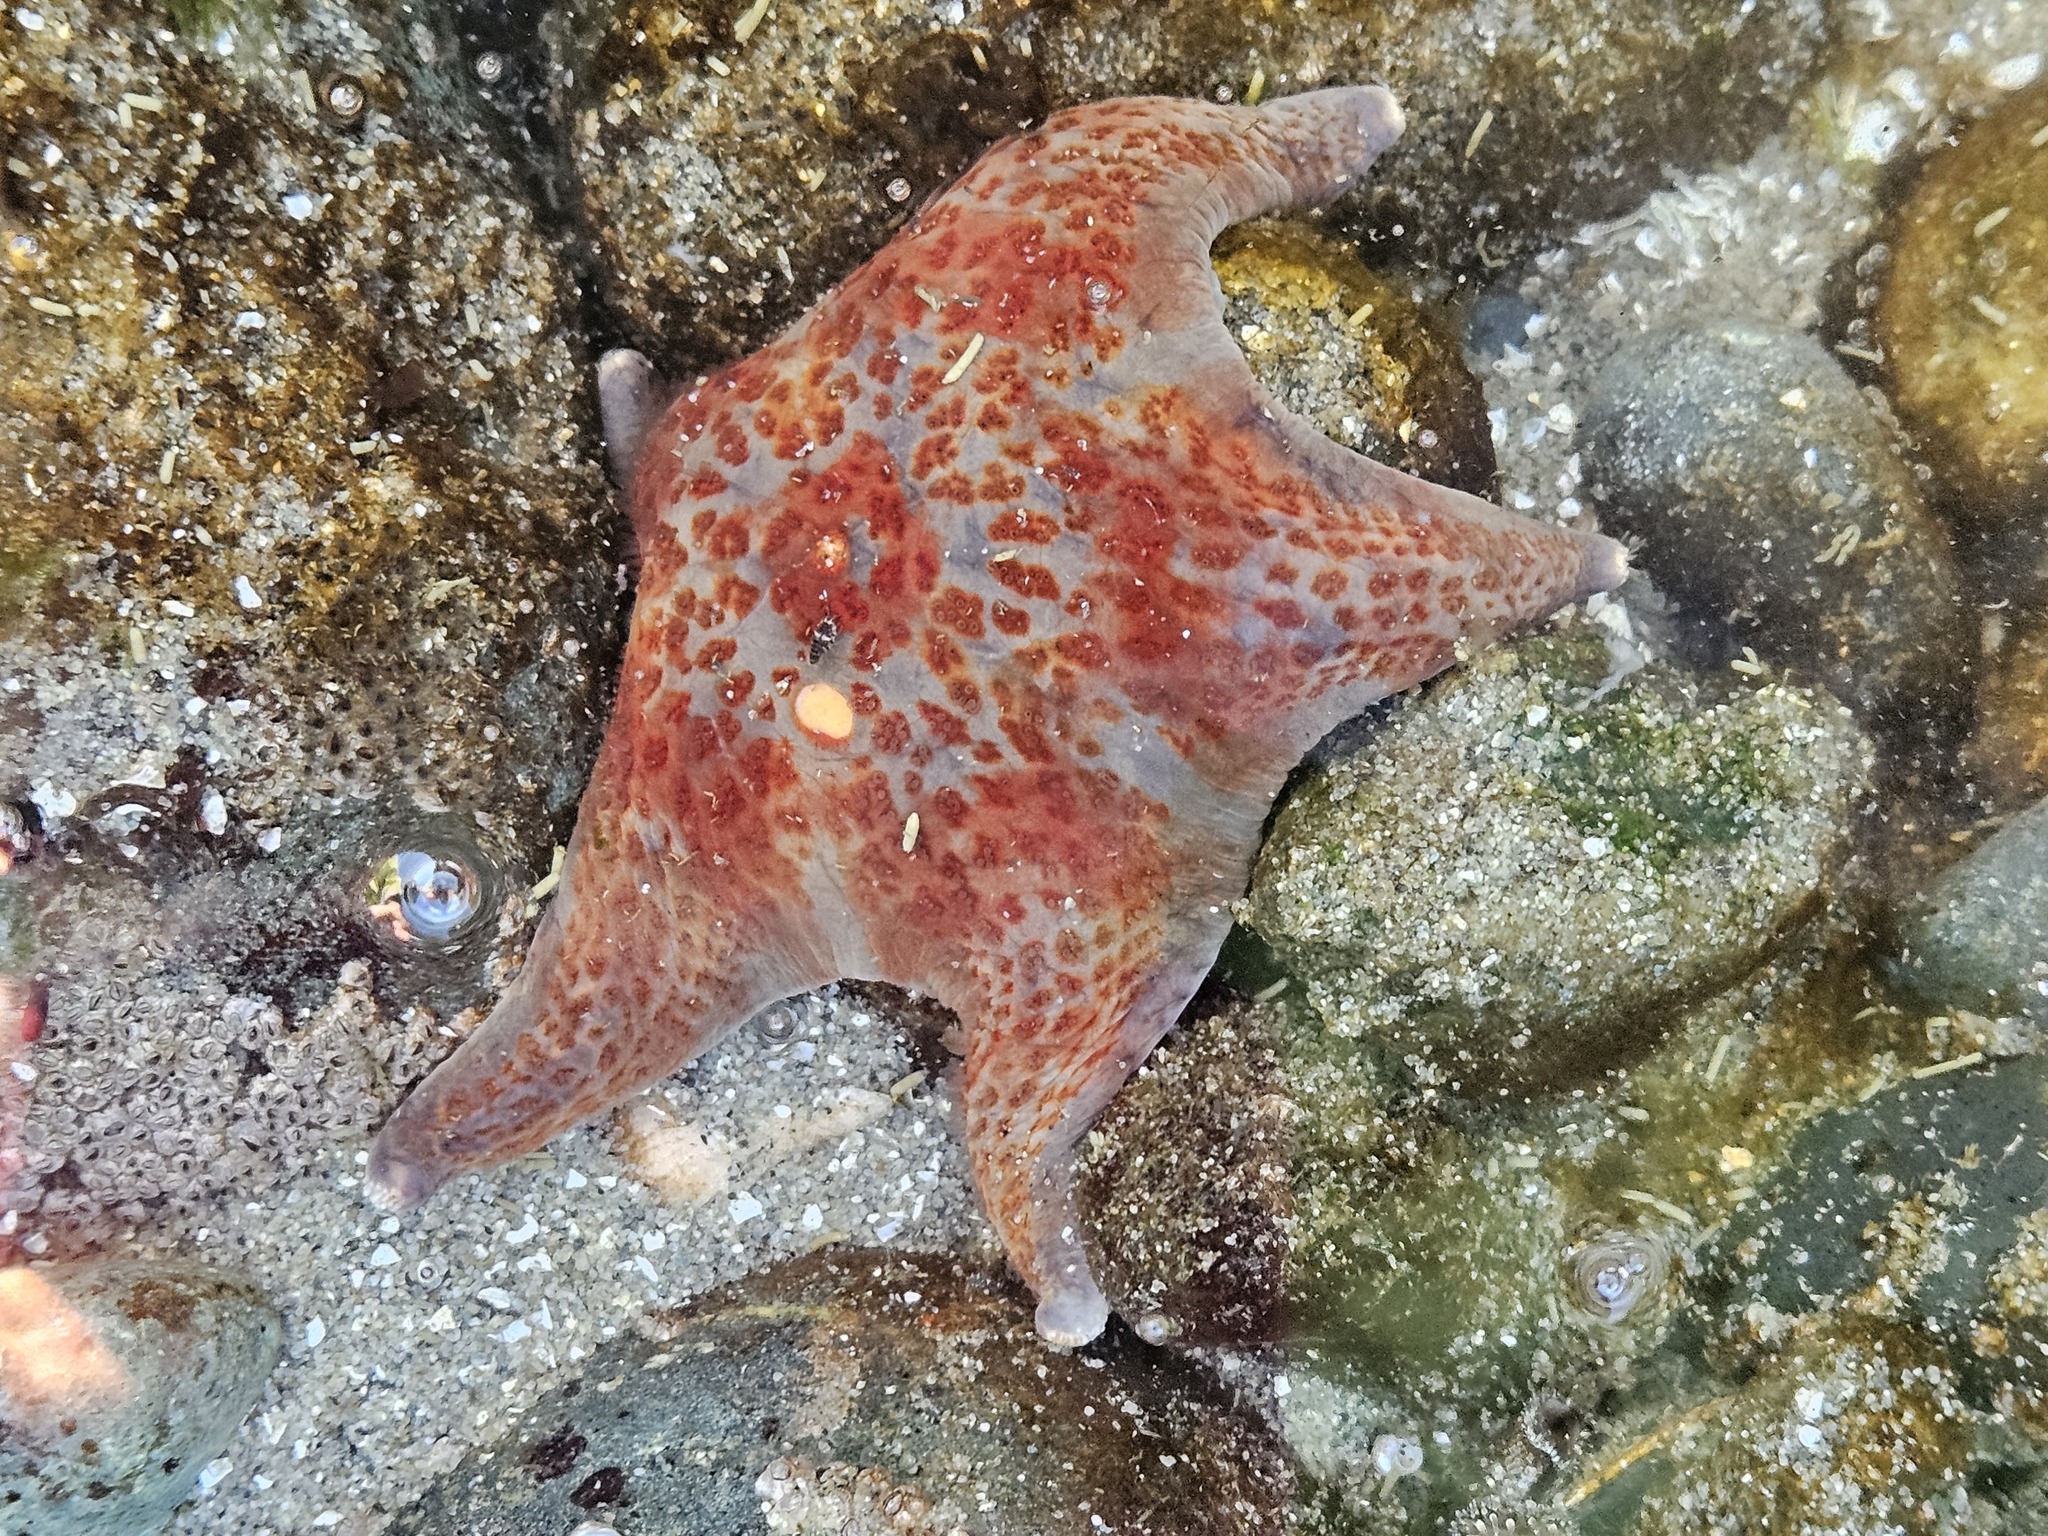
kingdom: Animalia
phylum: Echinodermata
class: Asteroidea
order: Valvatida
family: Asteropseidae
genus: Dermasterias
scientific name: Dermasterias imbricata
